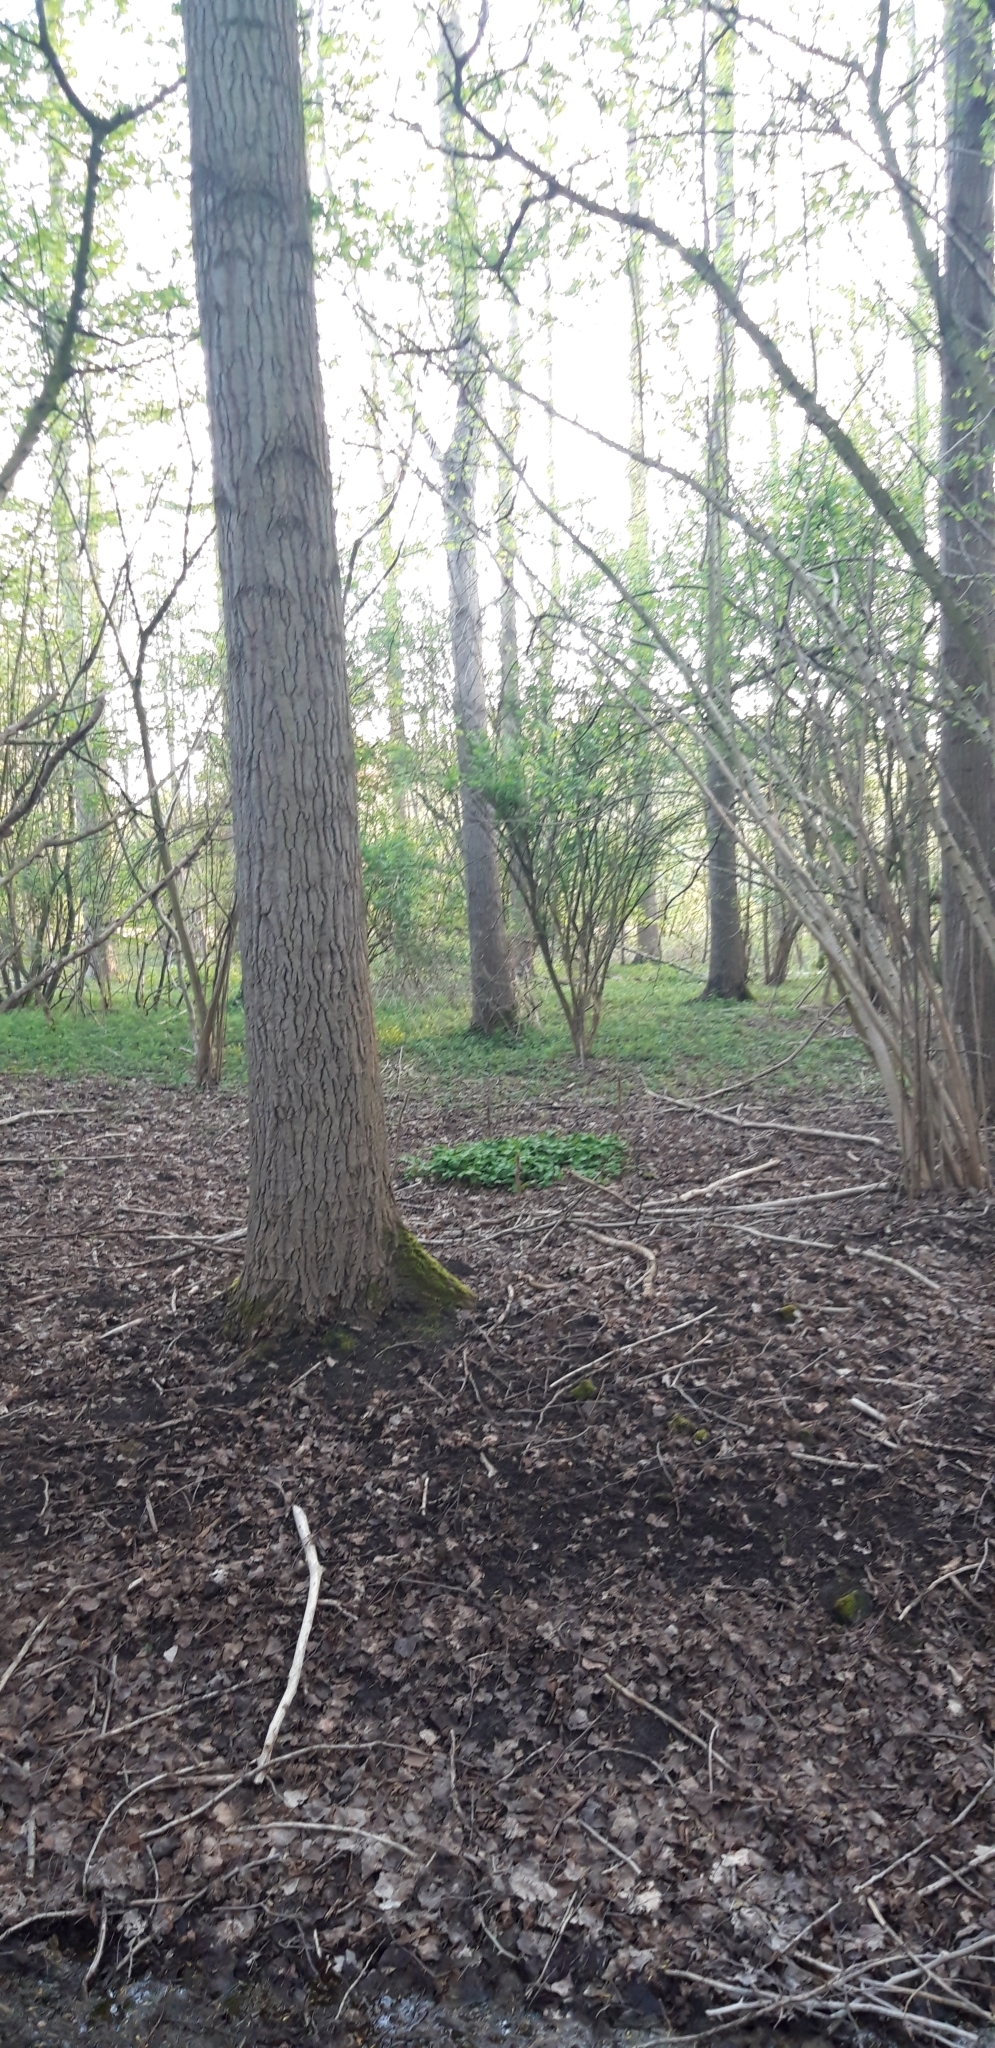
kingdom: Plantae
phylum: Tracheophyta
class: Liliopsida
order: Liliales
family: Melanthiaceae
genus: Paris
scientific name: Paris quadrifolia
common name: Herb-paris
